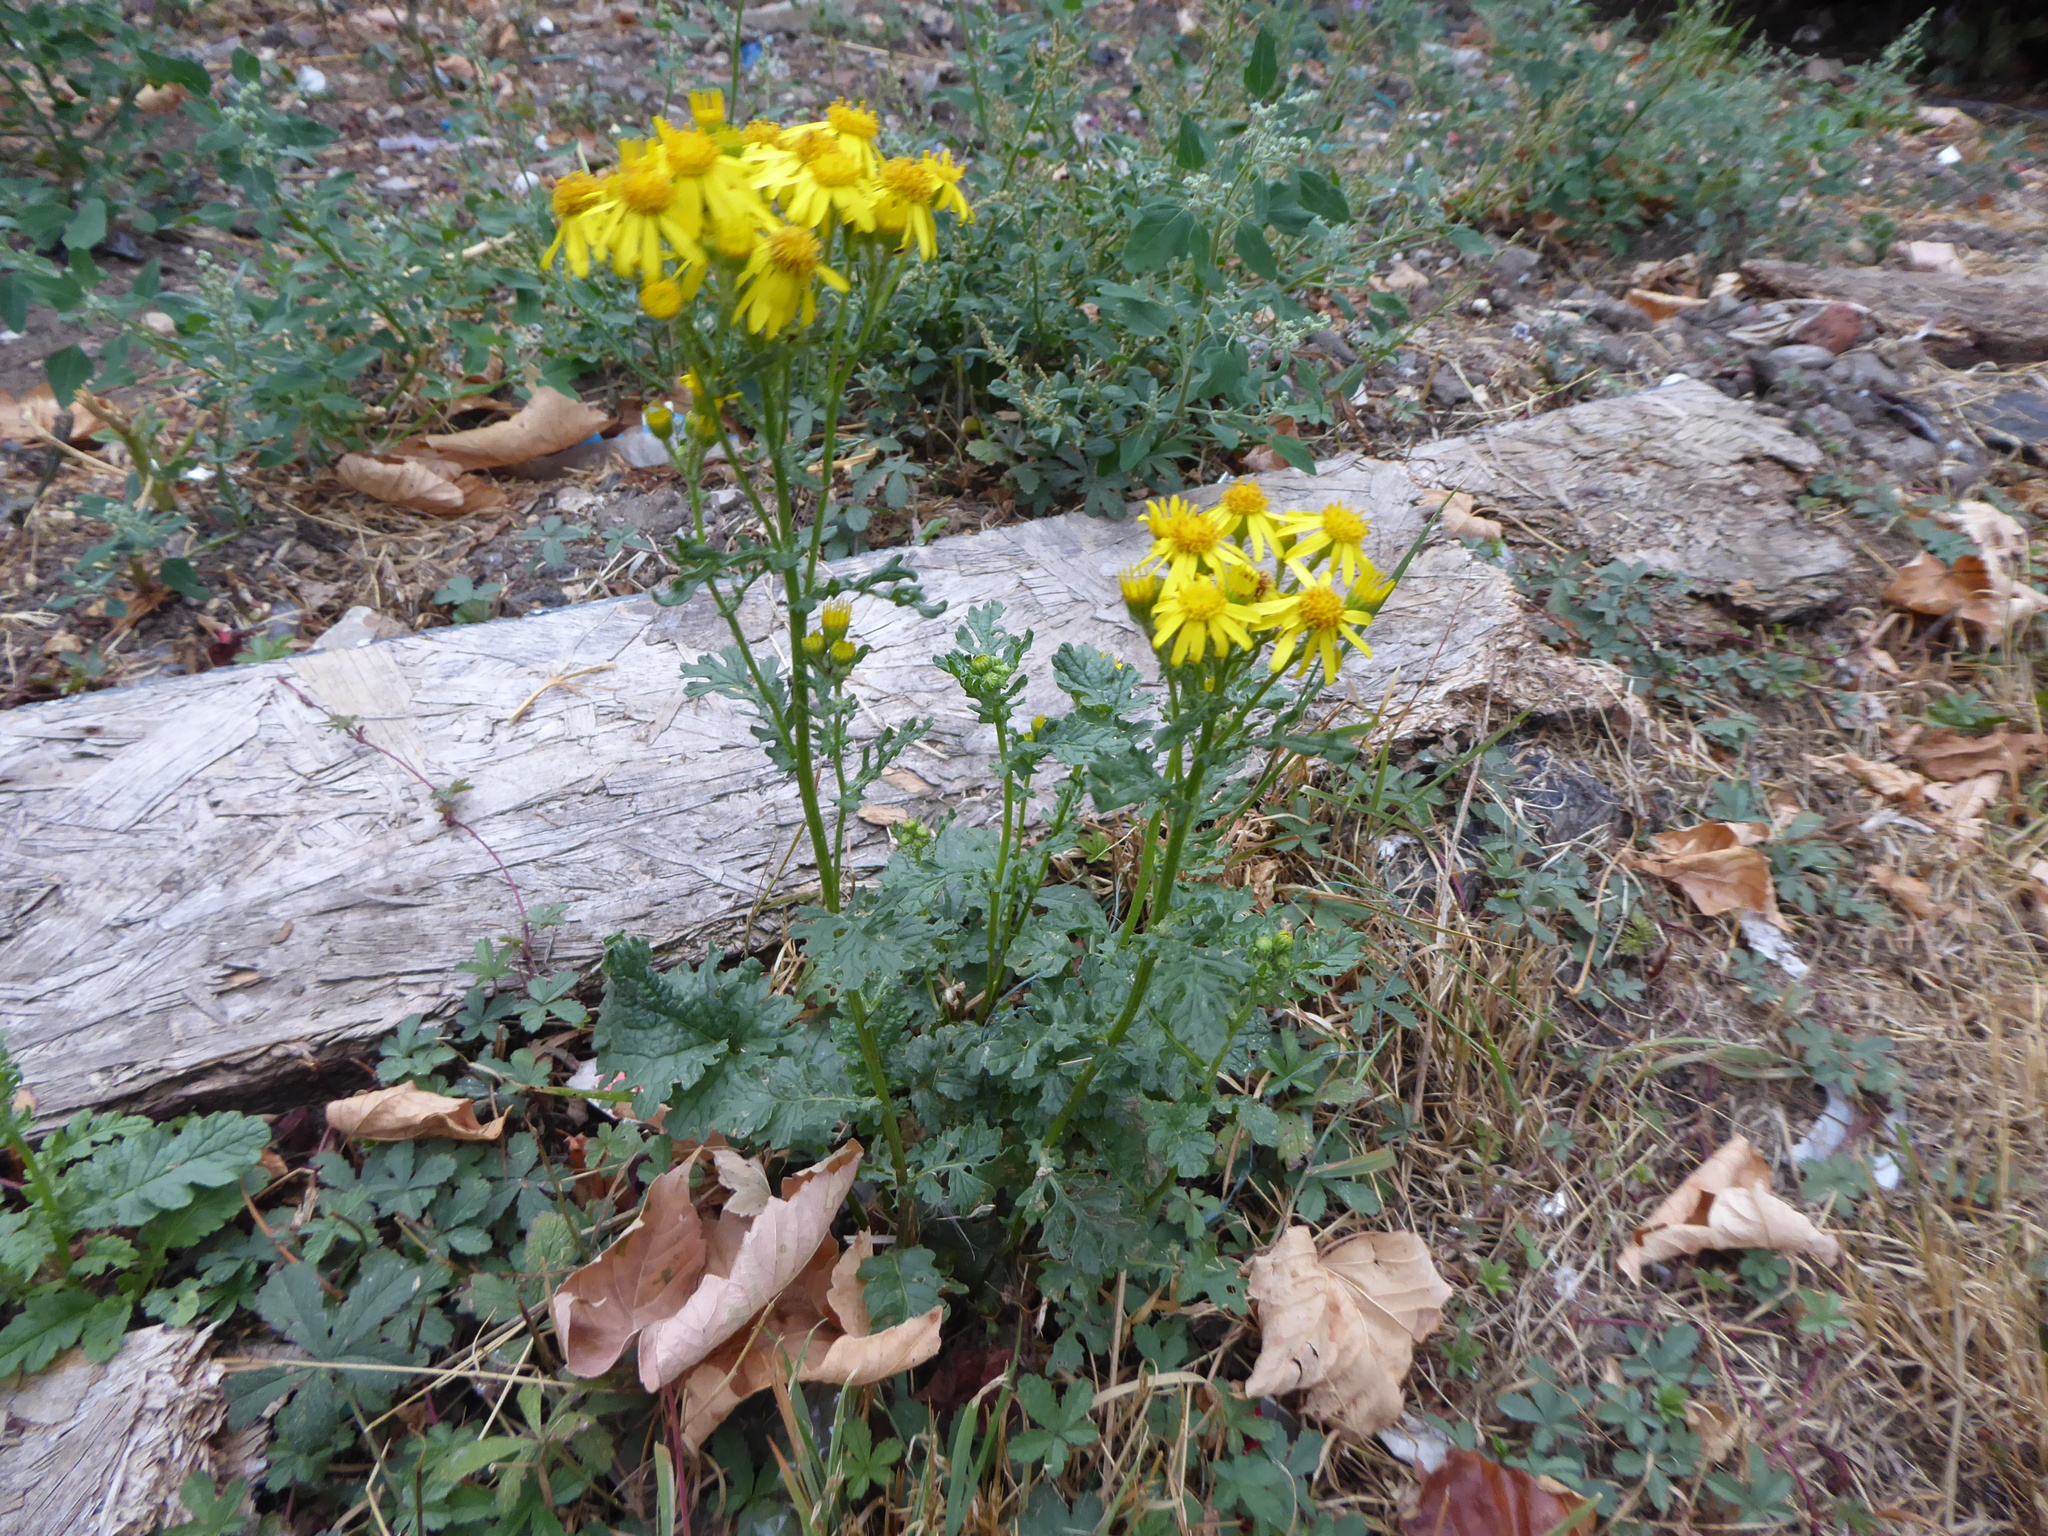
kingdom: Plantae
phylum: Tracheophyta
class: Magnoliopsida
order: Asterales
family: Asteraceae
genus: Jacobaea
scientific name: Jacobaea vulgaris
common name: Stinking willie
